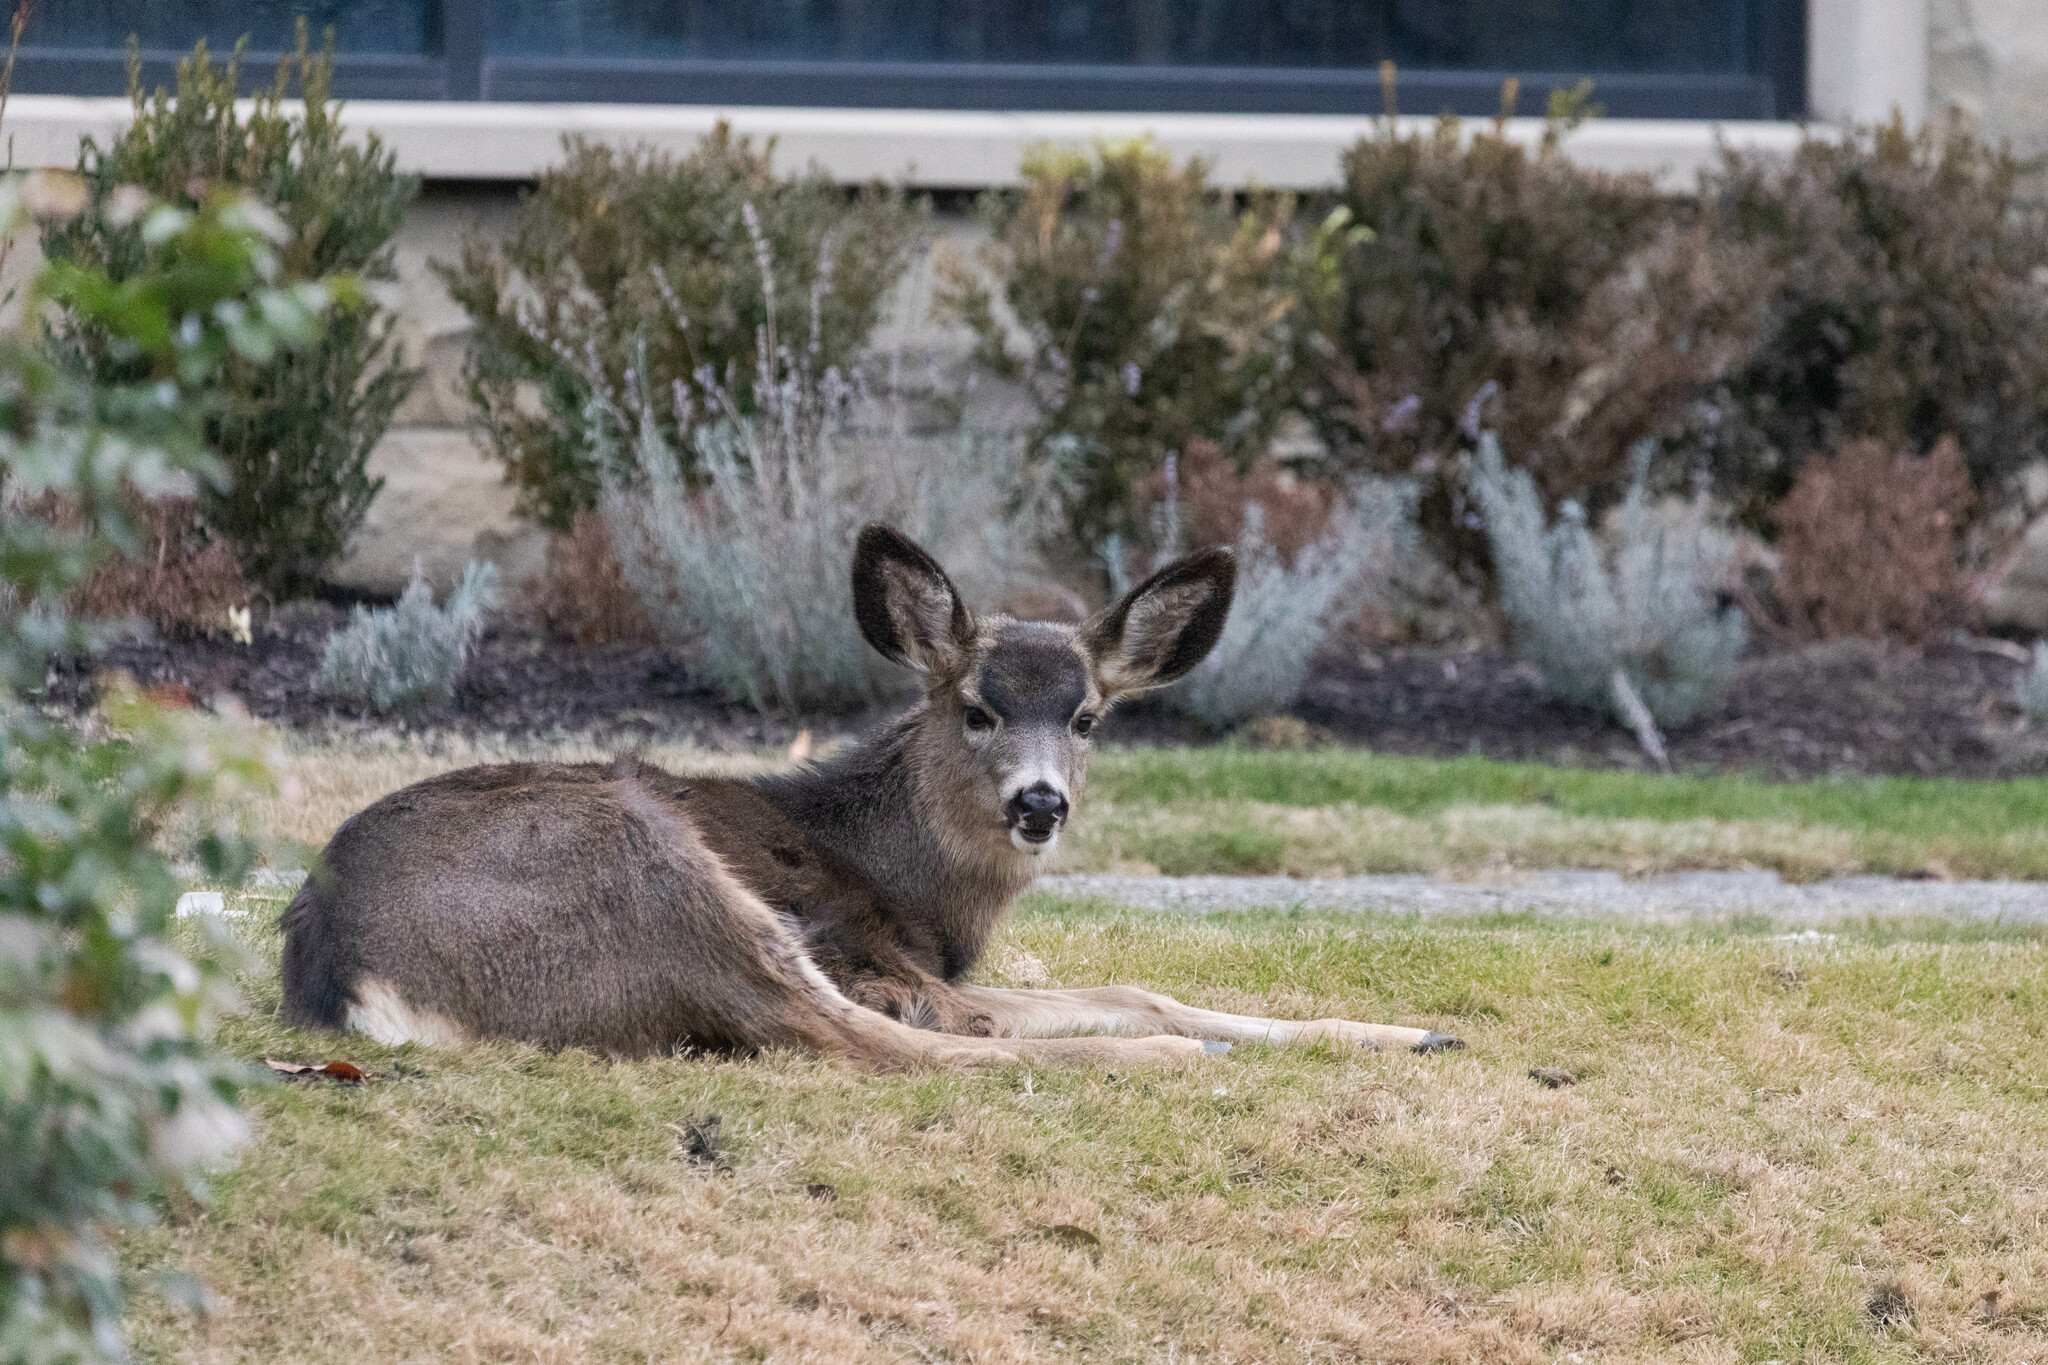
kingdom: Animalia
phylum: Chordata
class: Mammalia
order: Artiodactyla
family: Cervidae
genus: Odocoileus
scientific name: Odocoileus hemionus
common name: Mule deer
